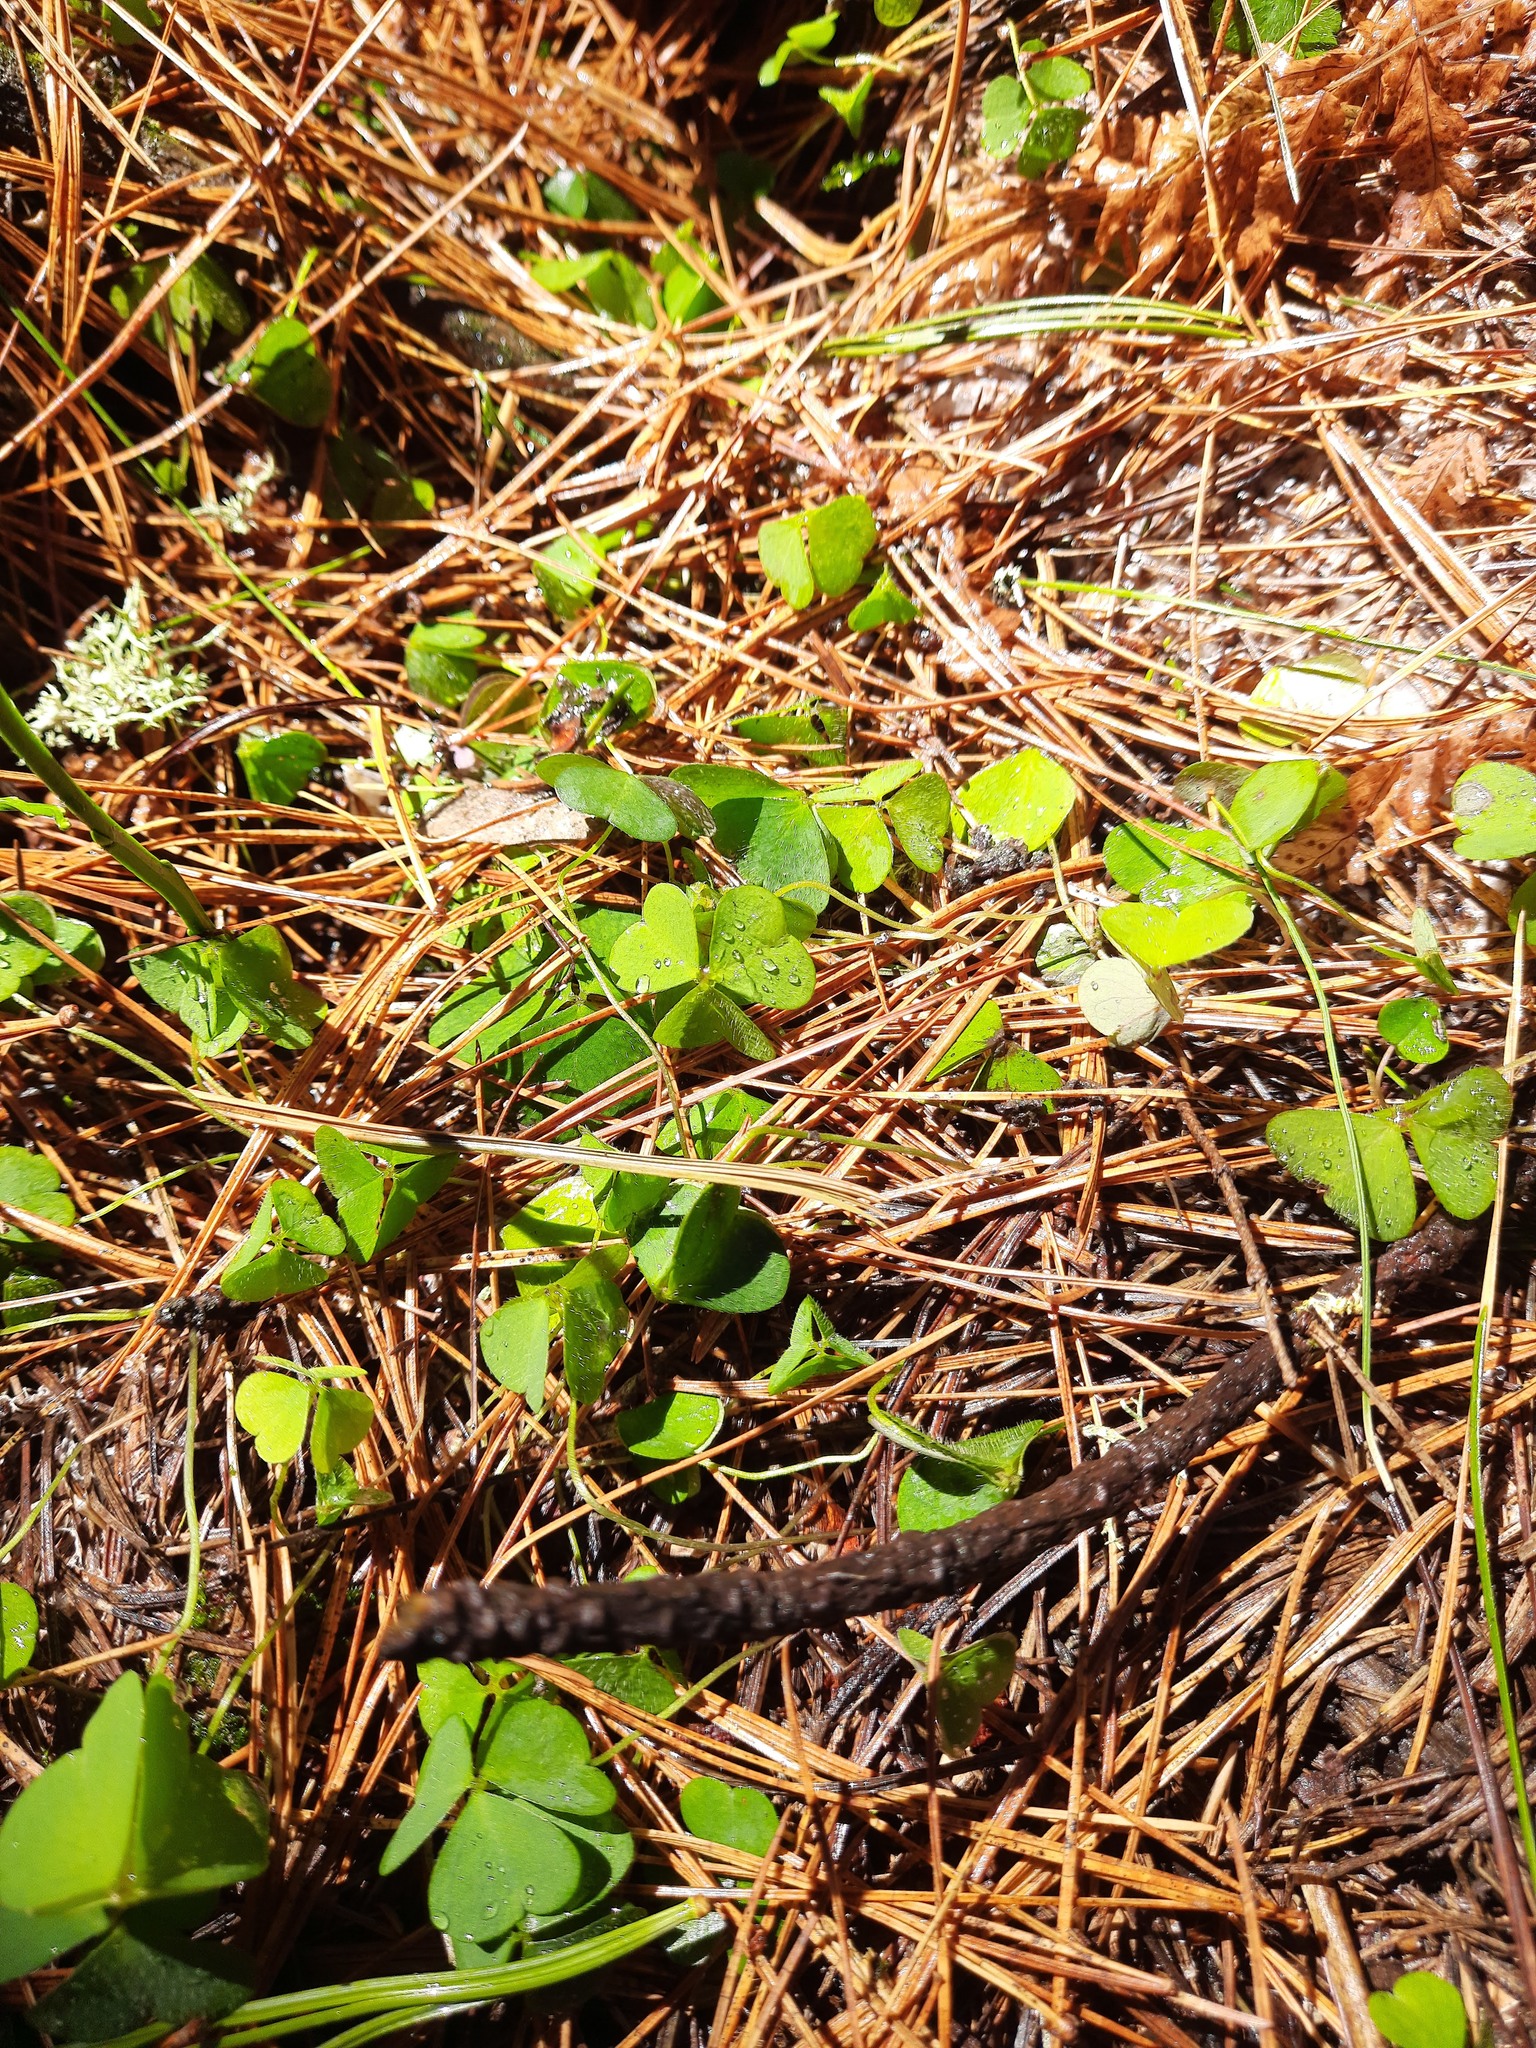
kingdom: Plantae
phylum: Tracheophyta
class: Magnoliopsida
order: Oxalidales
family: Oxalidaceae
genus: Oxalis
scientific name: Oxalis acetosella
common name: Wood-sorrel
